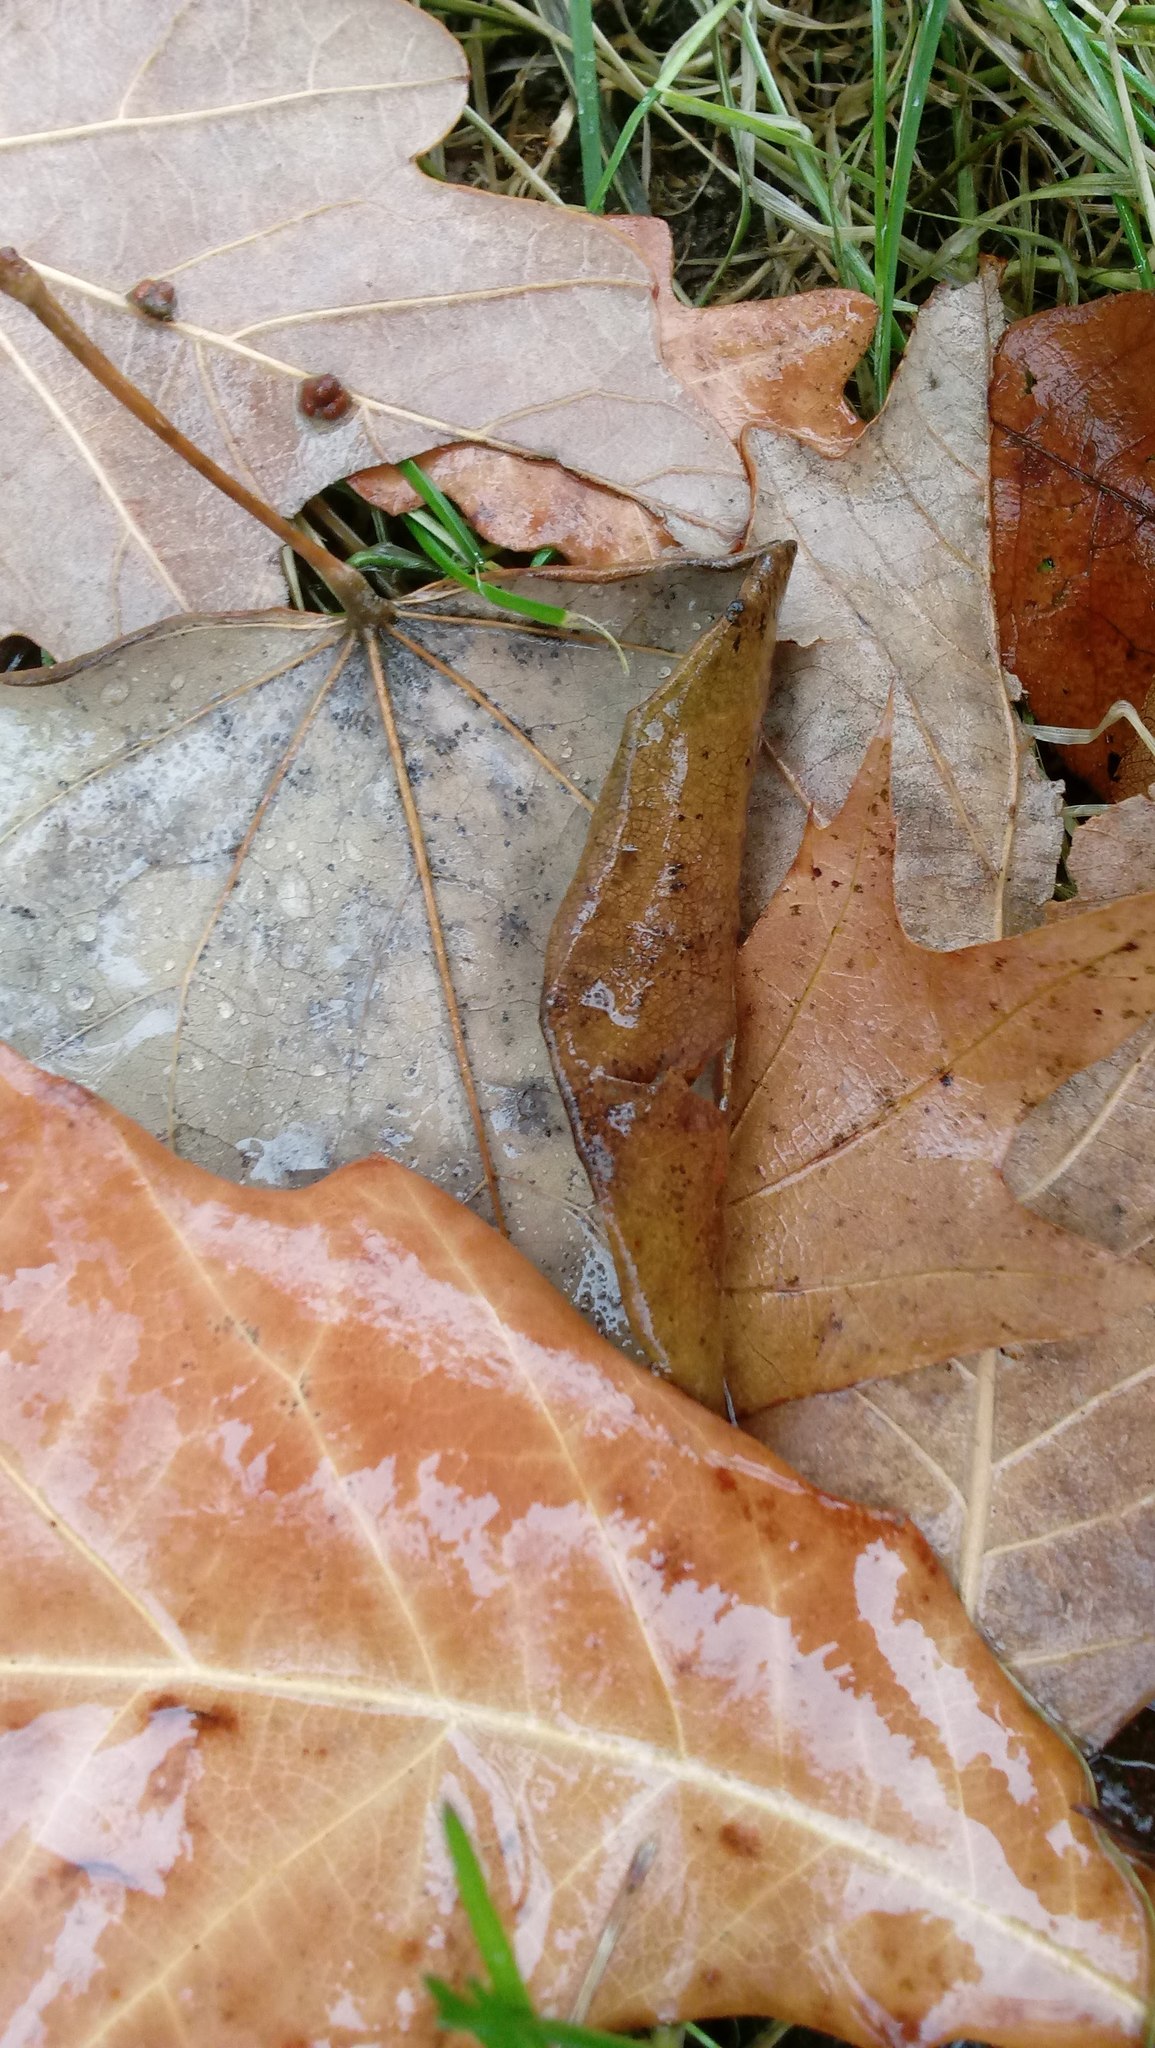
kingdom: Animalia
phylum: Arthropoda
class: Insecta
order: Hymenoptera
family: Cynipidae
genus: Andricus
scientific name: Andricus Druon ignotum
